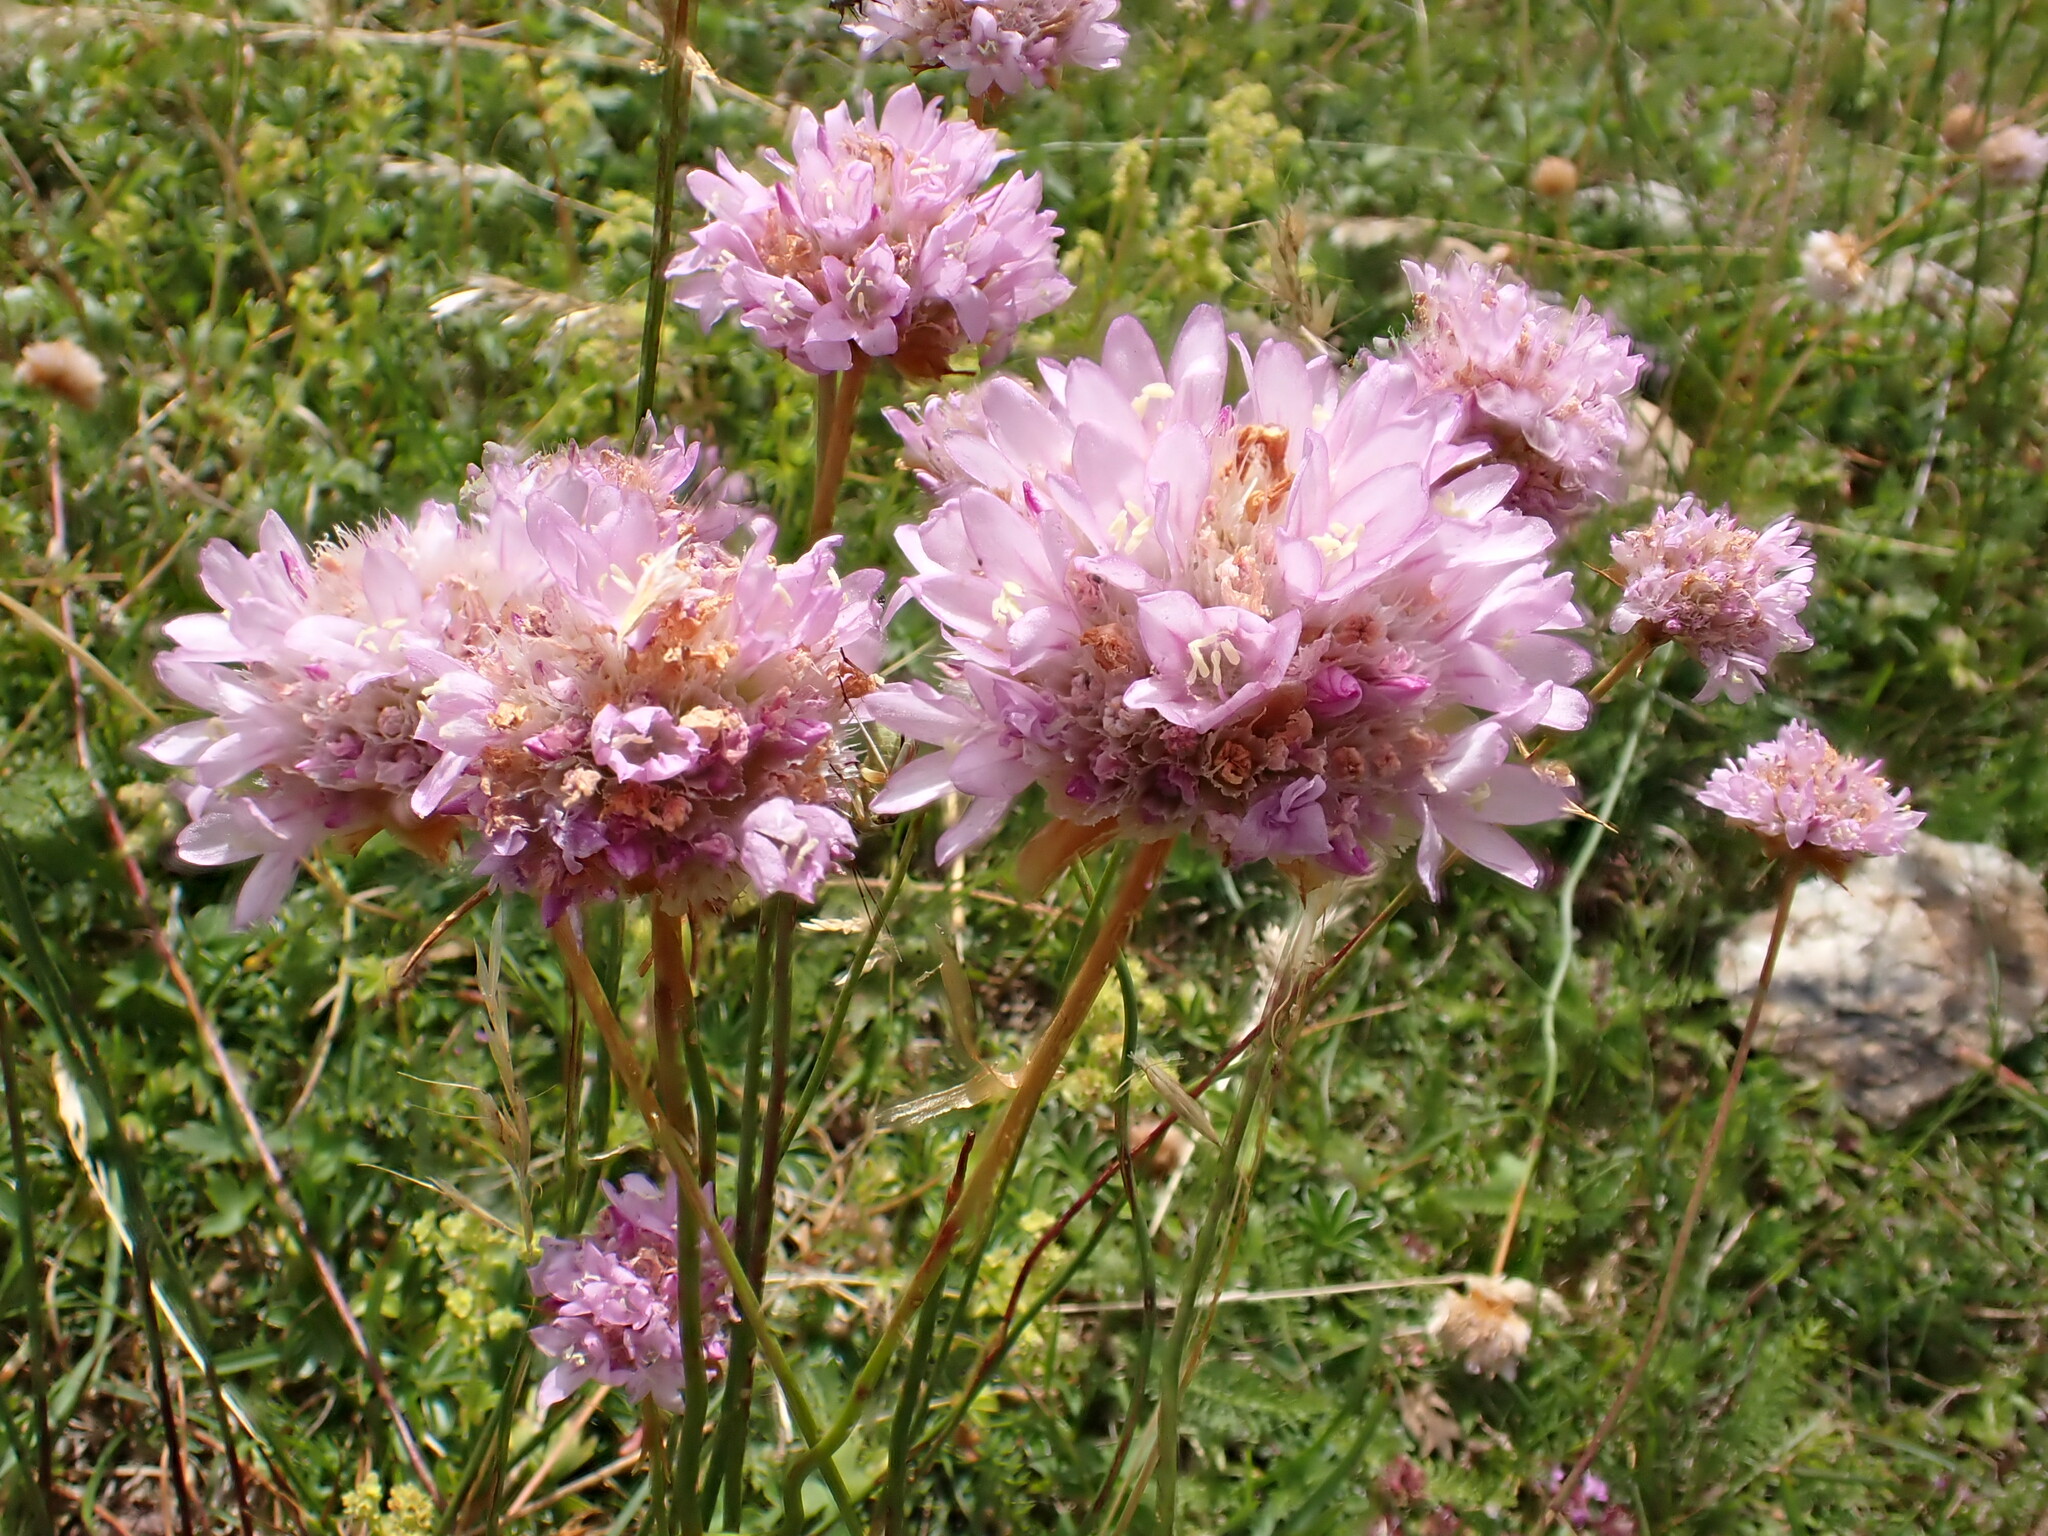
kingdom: Plantae
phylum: Tracheophyta
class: Magnoliopsida
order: Caryophyllales
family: Plumbaginaceae
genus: Armeria
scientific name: Armeria arenaria
